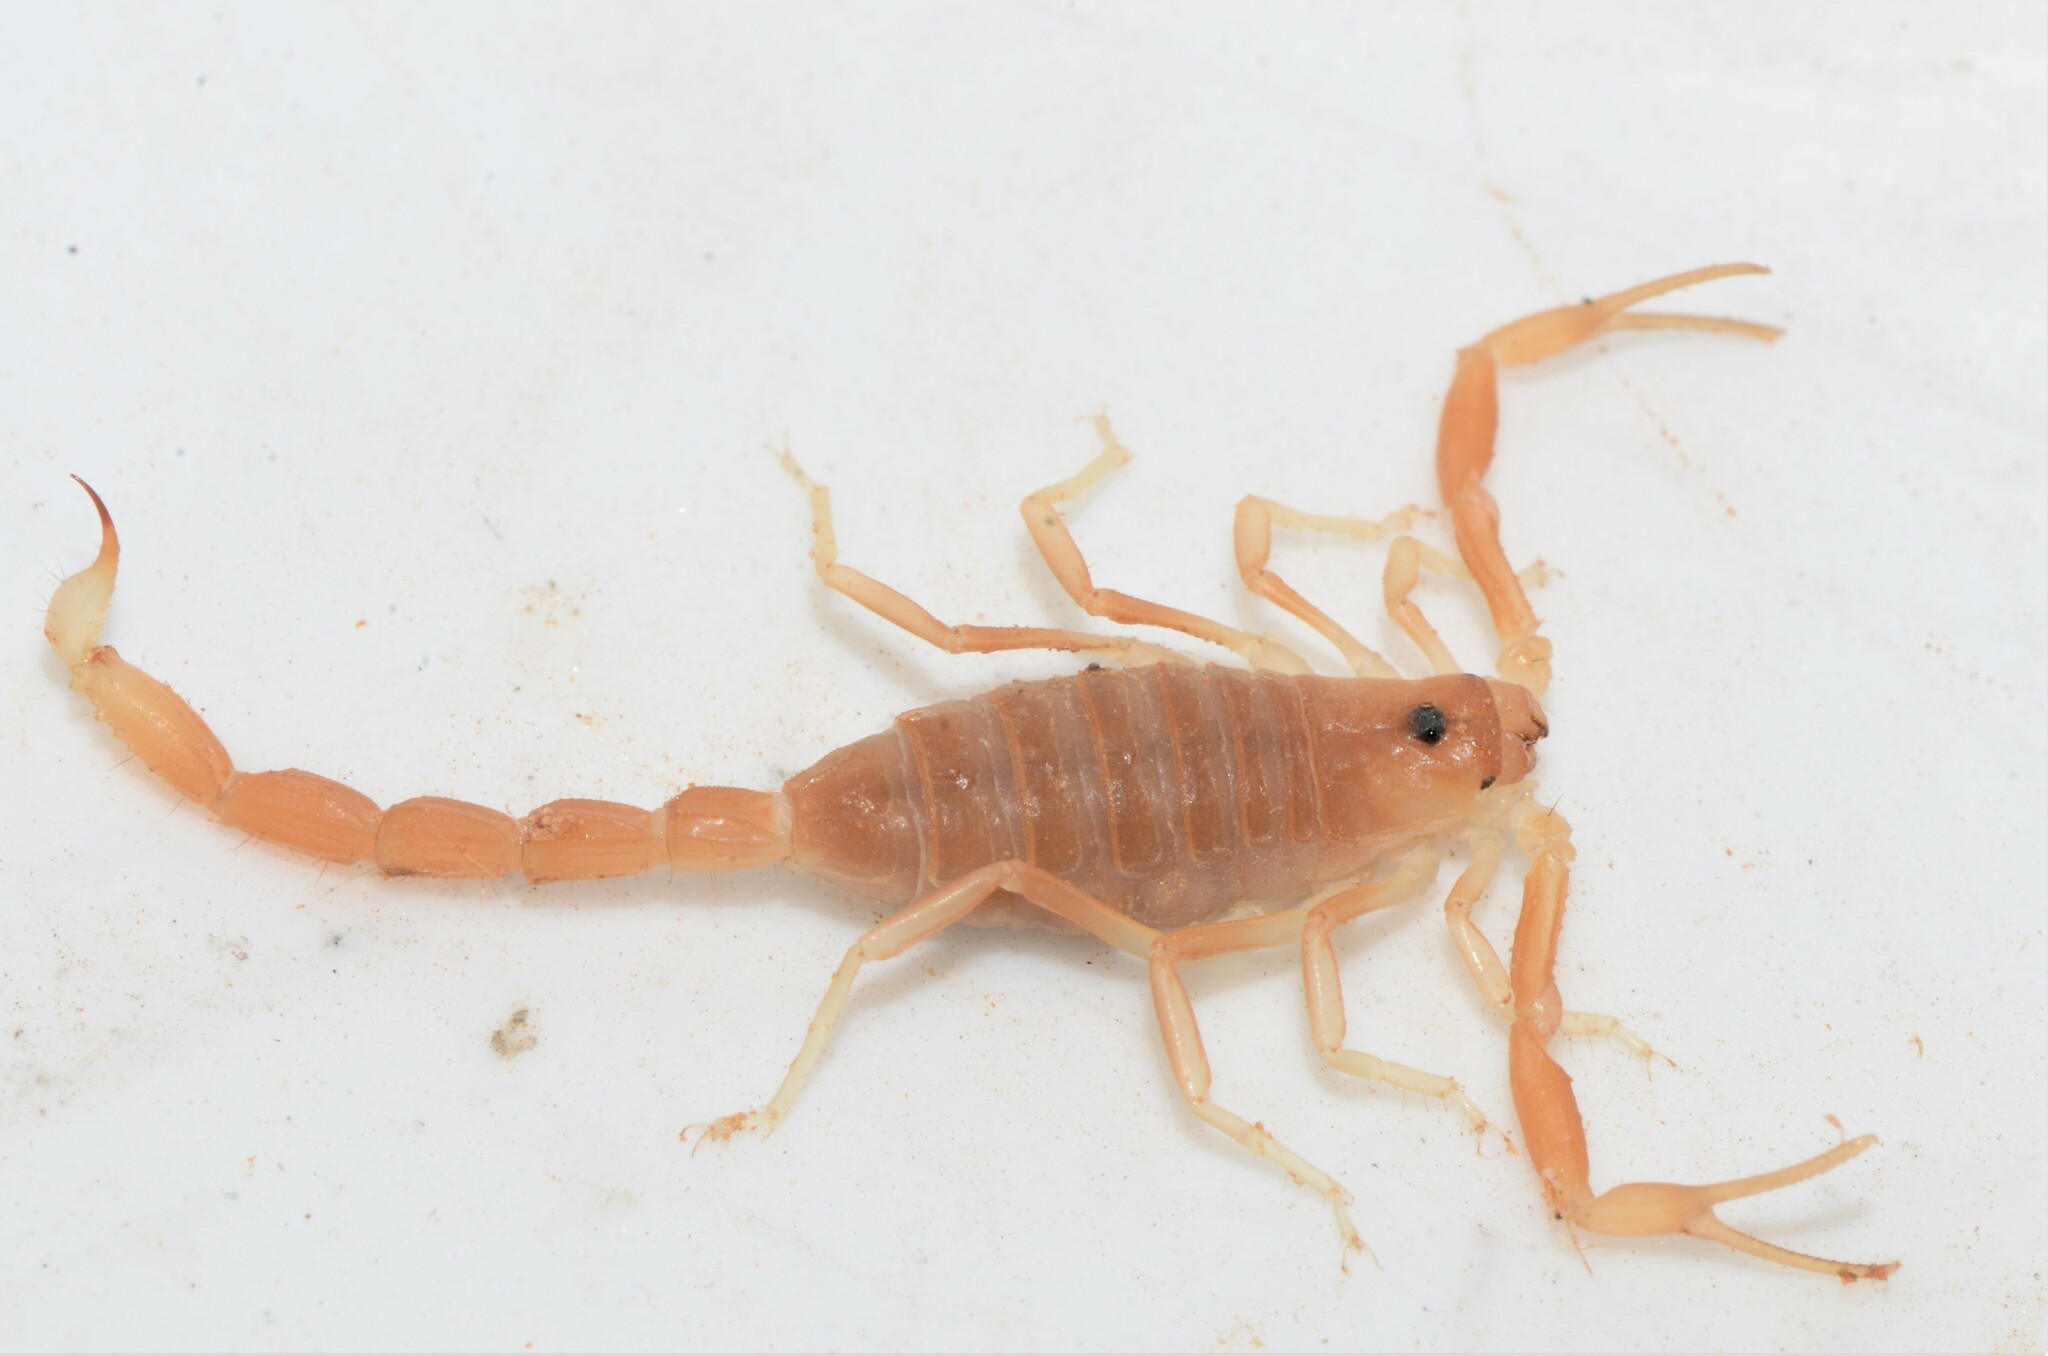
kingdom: Animalia
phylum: Arthropoda
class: Arachnida
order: Scorpiones
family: Buthidae
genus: Parabuthus
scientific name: Parabuthus granulatus
